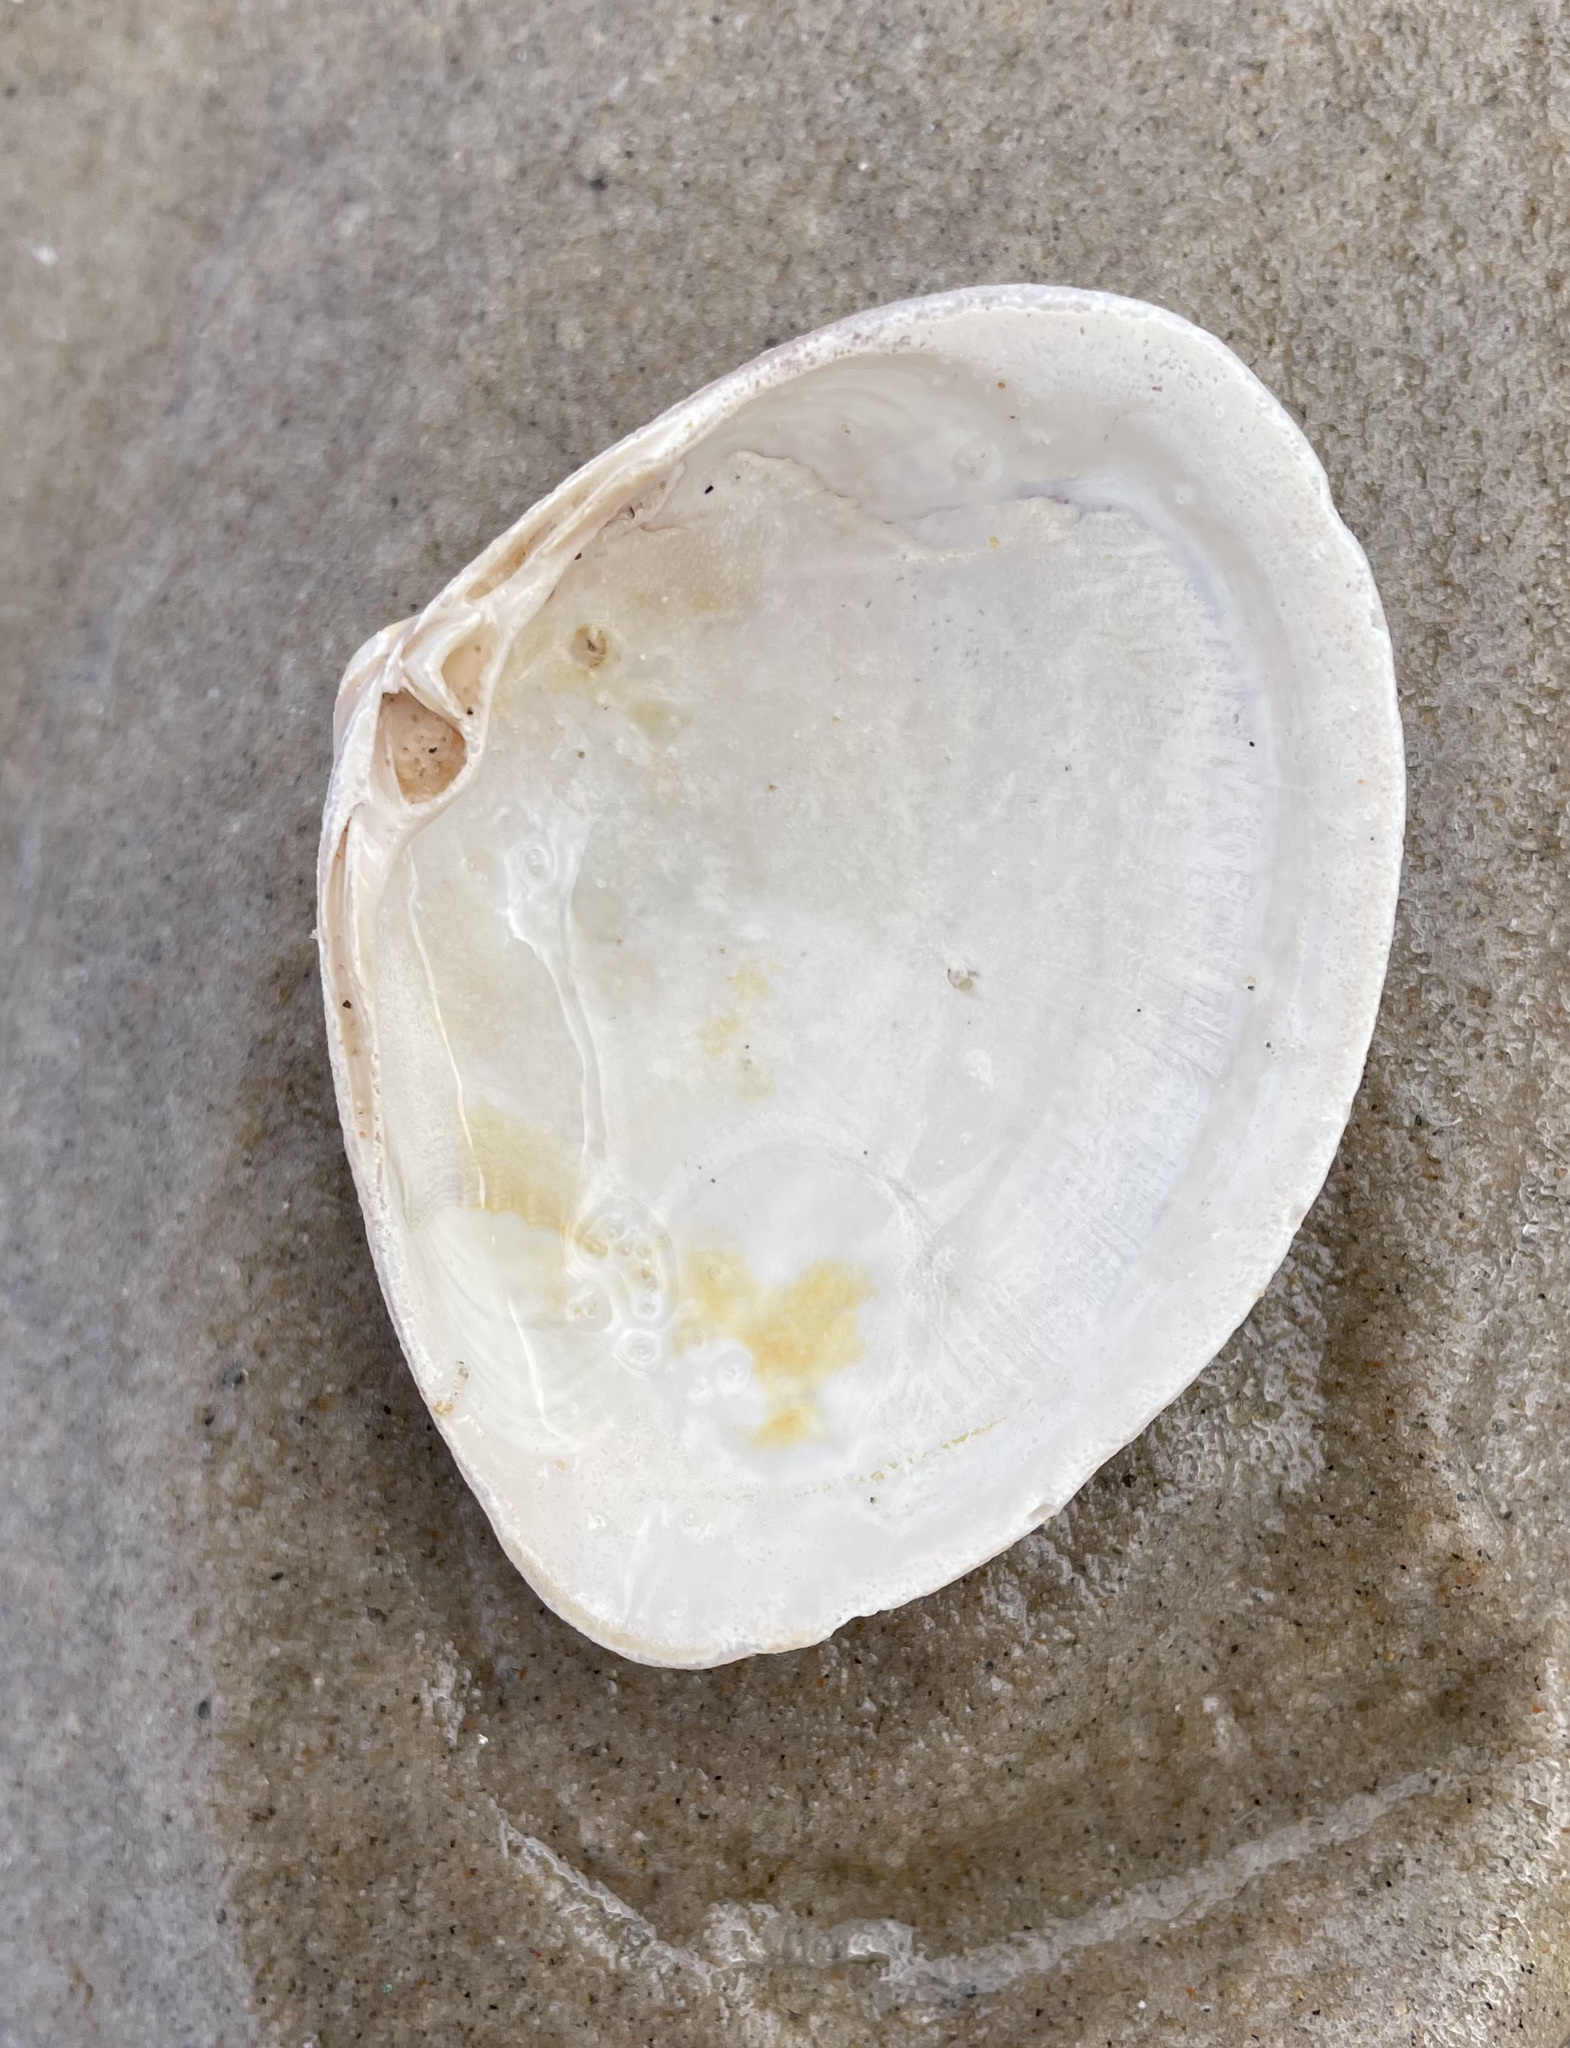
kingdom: Animalia
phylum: Mollusca
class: Bivalvia
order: Venerida
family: Mactridae
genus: Mactra
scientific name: Mactra stultorum
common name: Rayed trough shell
